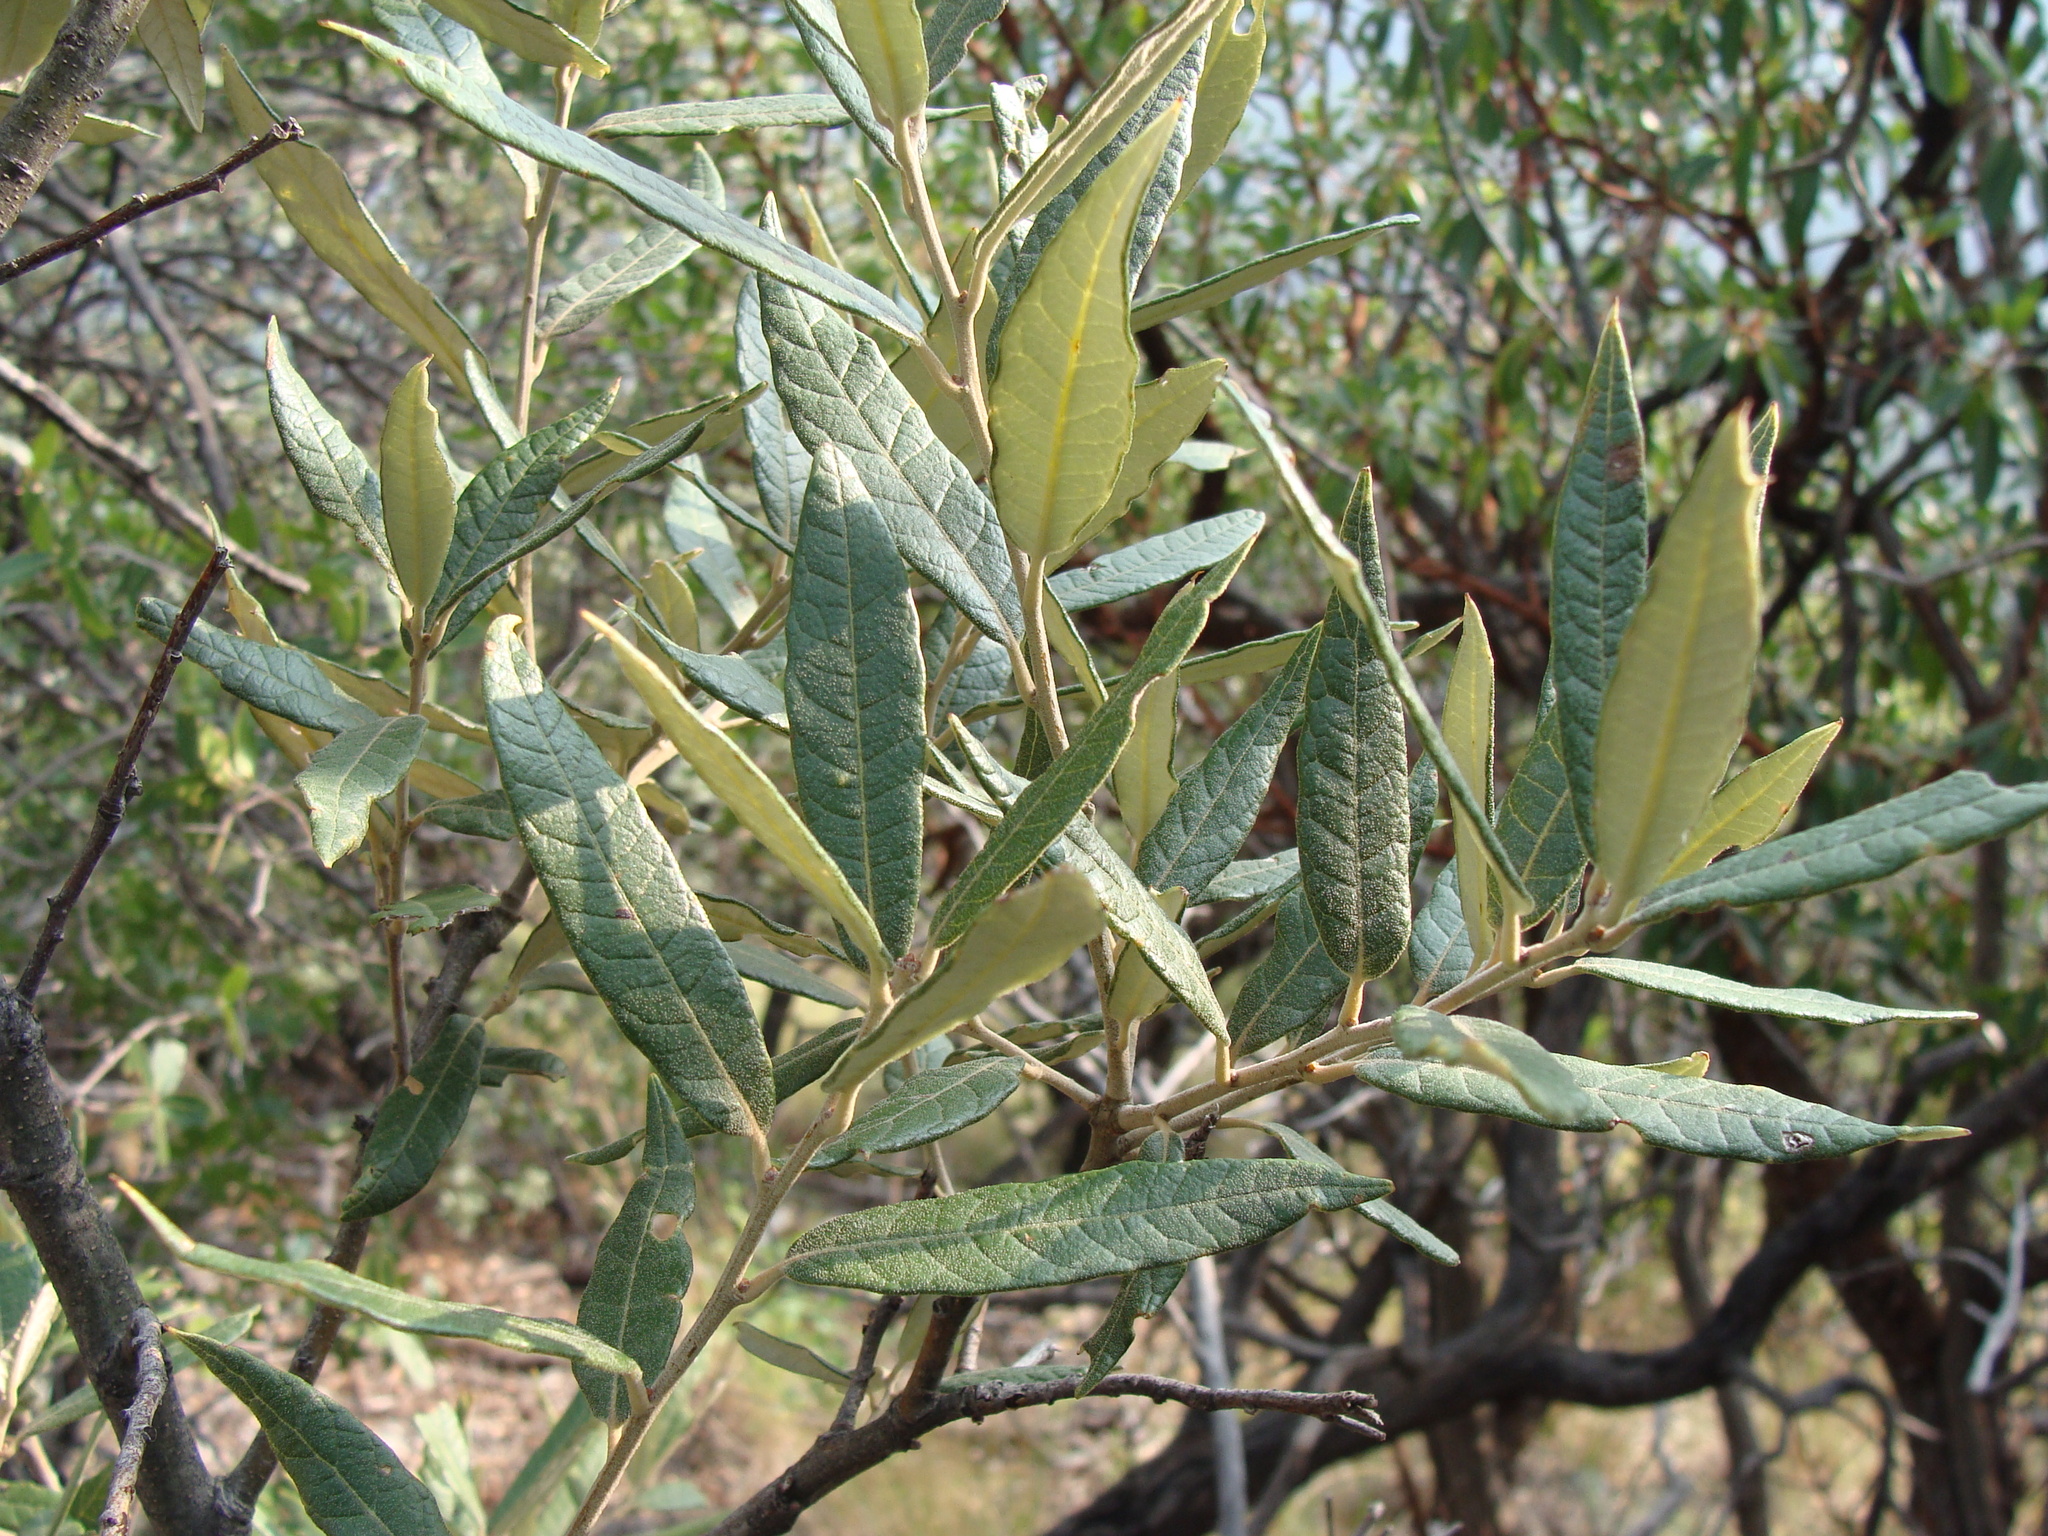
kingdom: Plantae
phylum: Tracheophyta
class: Magnoliopsida
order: Fagales
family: Fagaceae
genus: Quercus
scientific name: Quercus hypoleucoides
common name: Silverleaf oak
